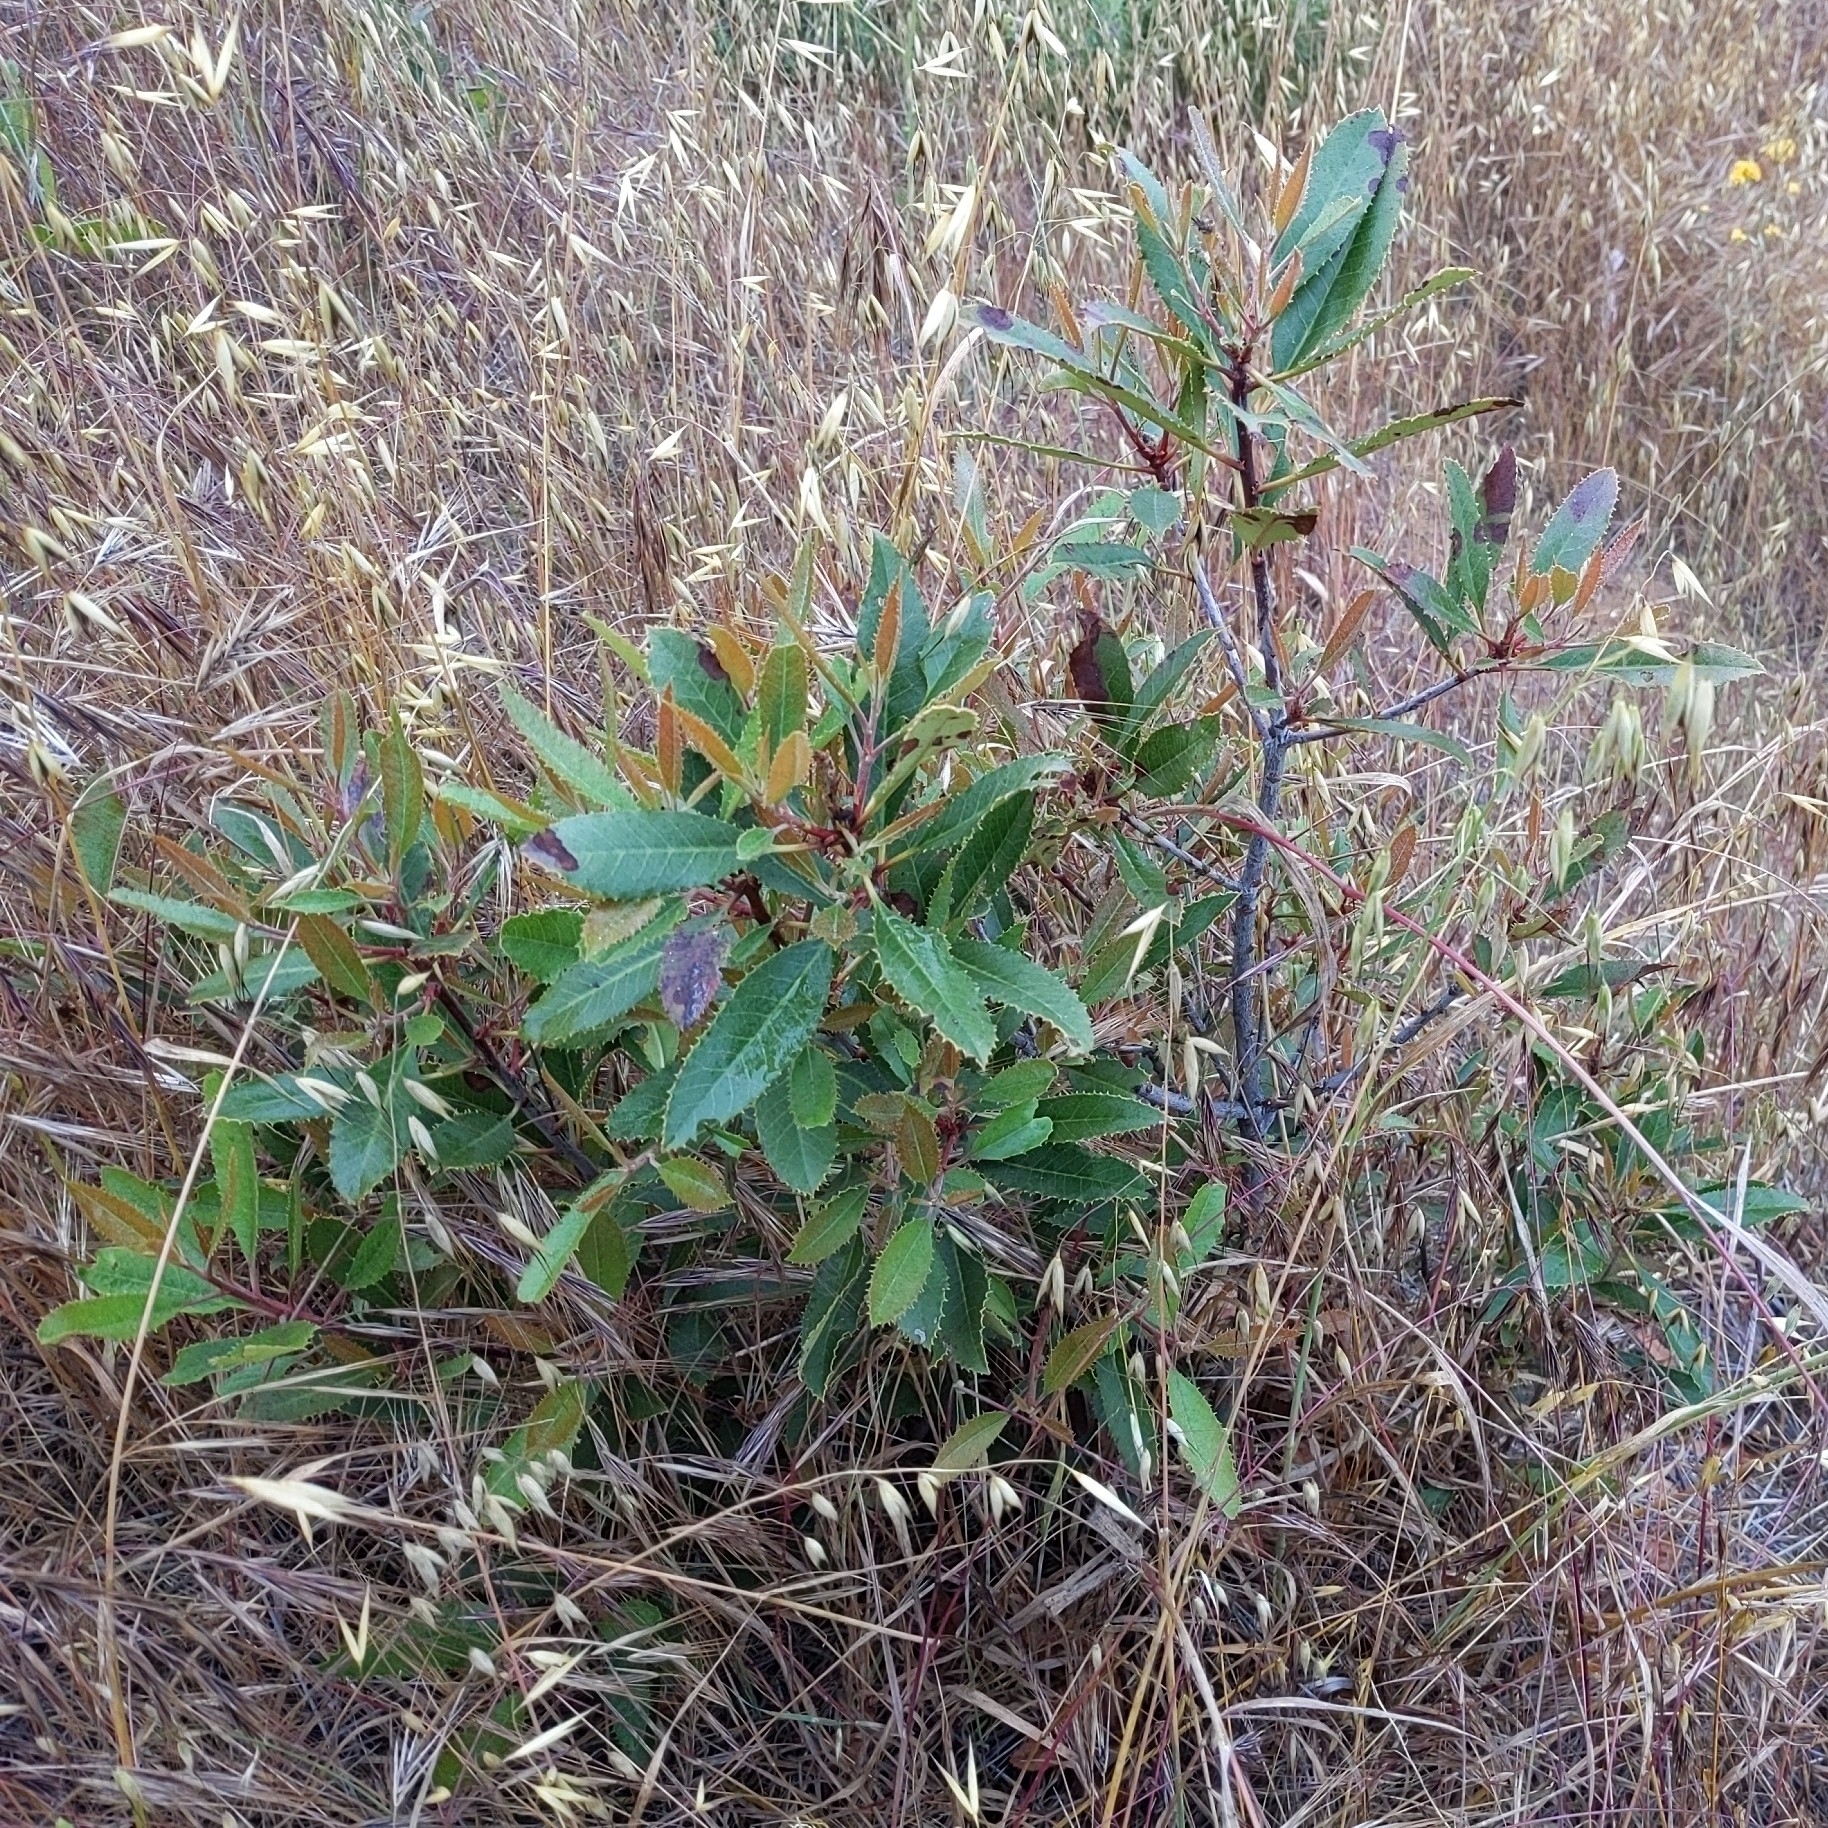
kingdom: Plantae
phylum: Tracheophyta
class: Magnoliopsida
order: Rosales
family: Rosaceae
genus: Heteromeles
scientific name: Heteromeles arbutifolia
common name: California-holly
